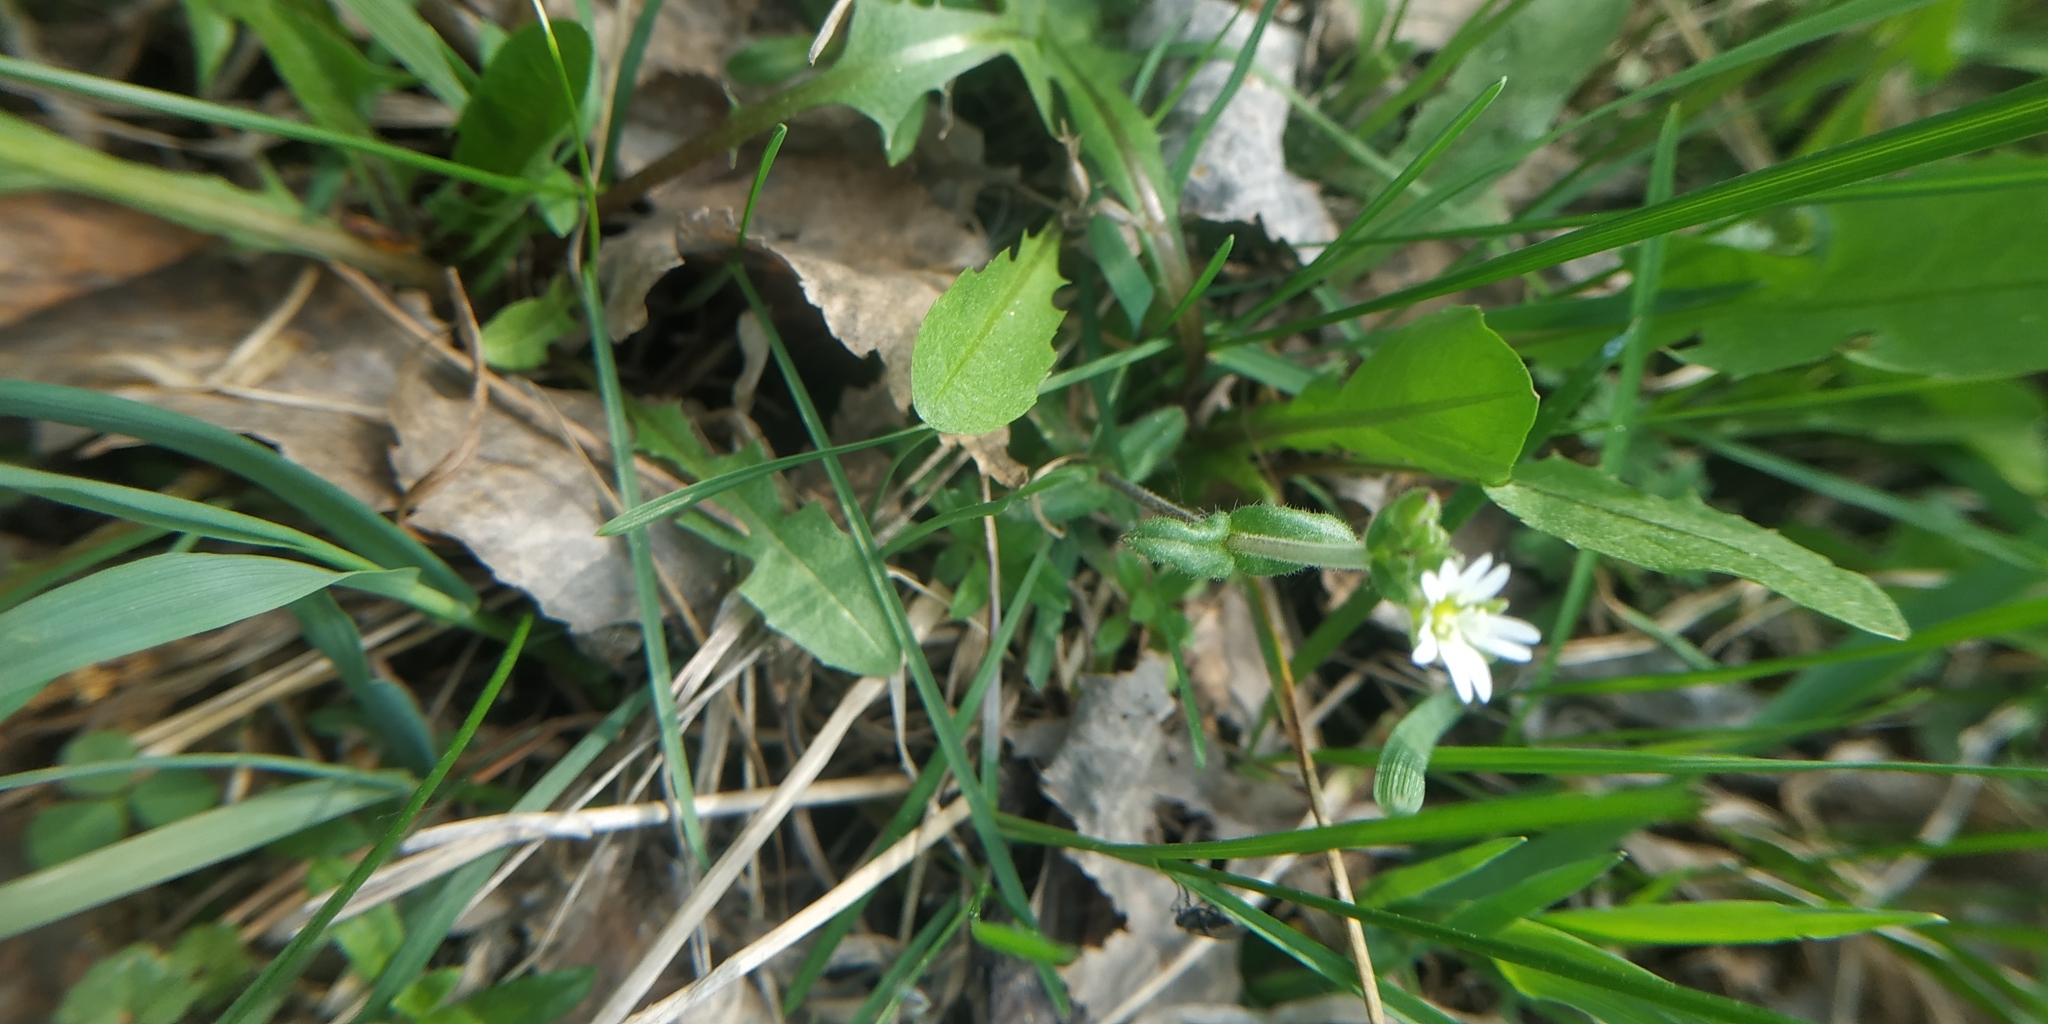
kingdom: Plantae
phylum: Tracheophyta
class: Magnoliopsida
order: Caryophyllales
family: Caryophyllaceae
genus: Cerastium
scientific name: Cerastium holosteoides
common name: Big chickweed
